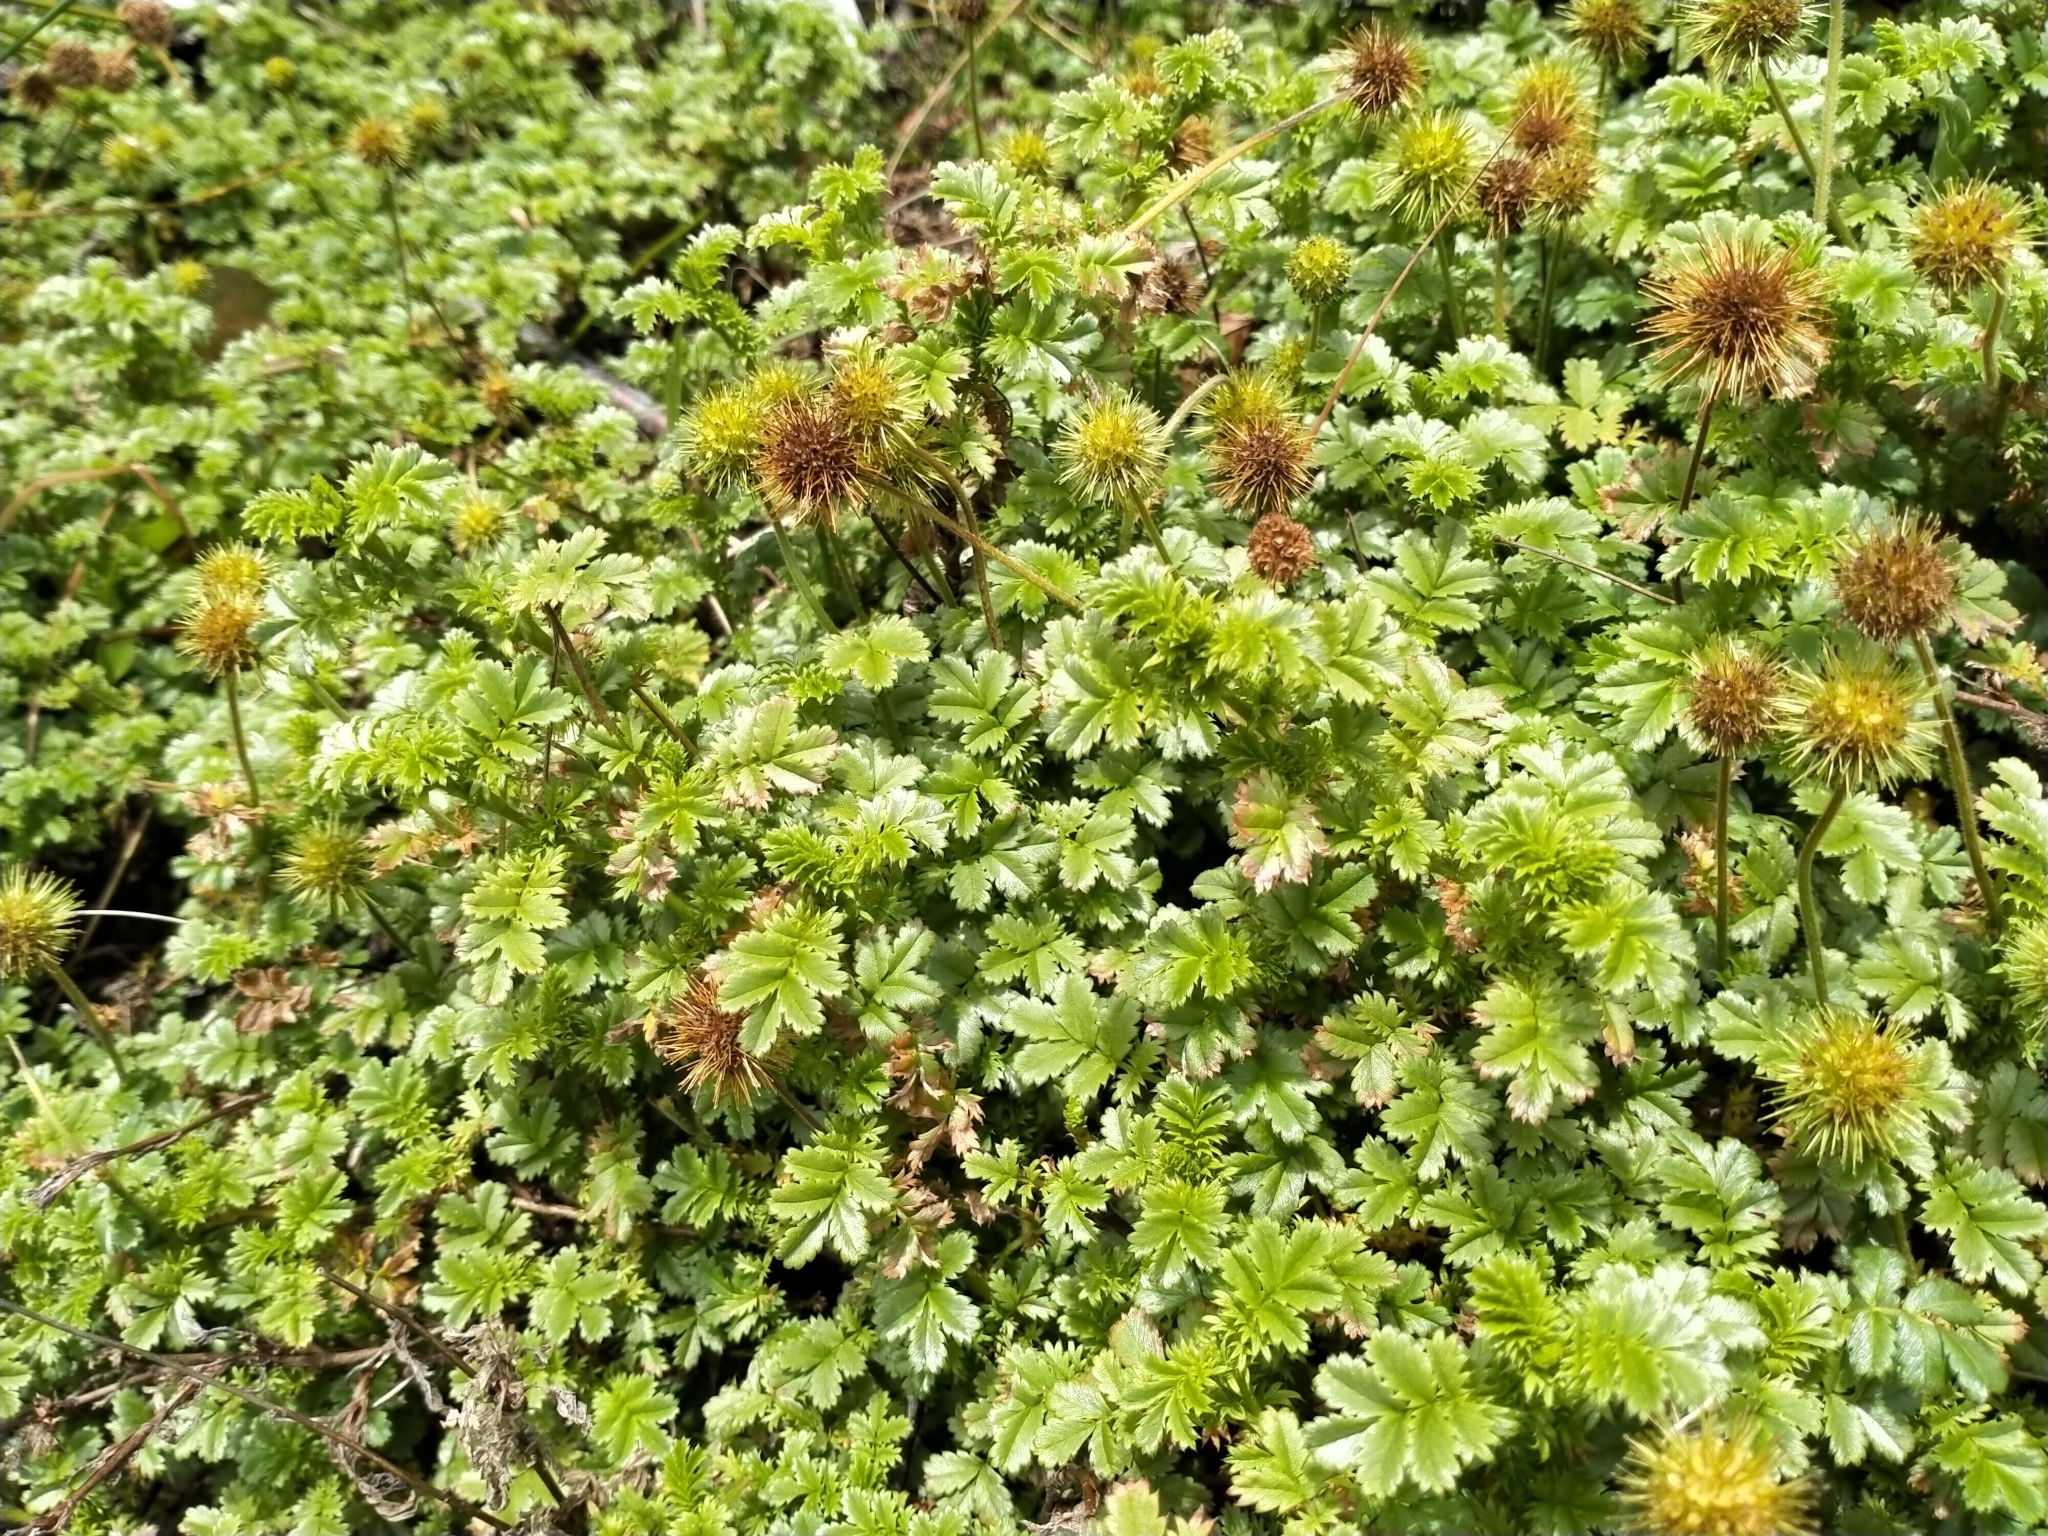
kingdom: Plantae
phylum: Tracheophyta
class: Magnoliopsida
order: Rosales
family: Rosaceae
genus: Acaena
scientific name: Acaena anserinifolia
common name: Bronze pirri-pirri-bur
